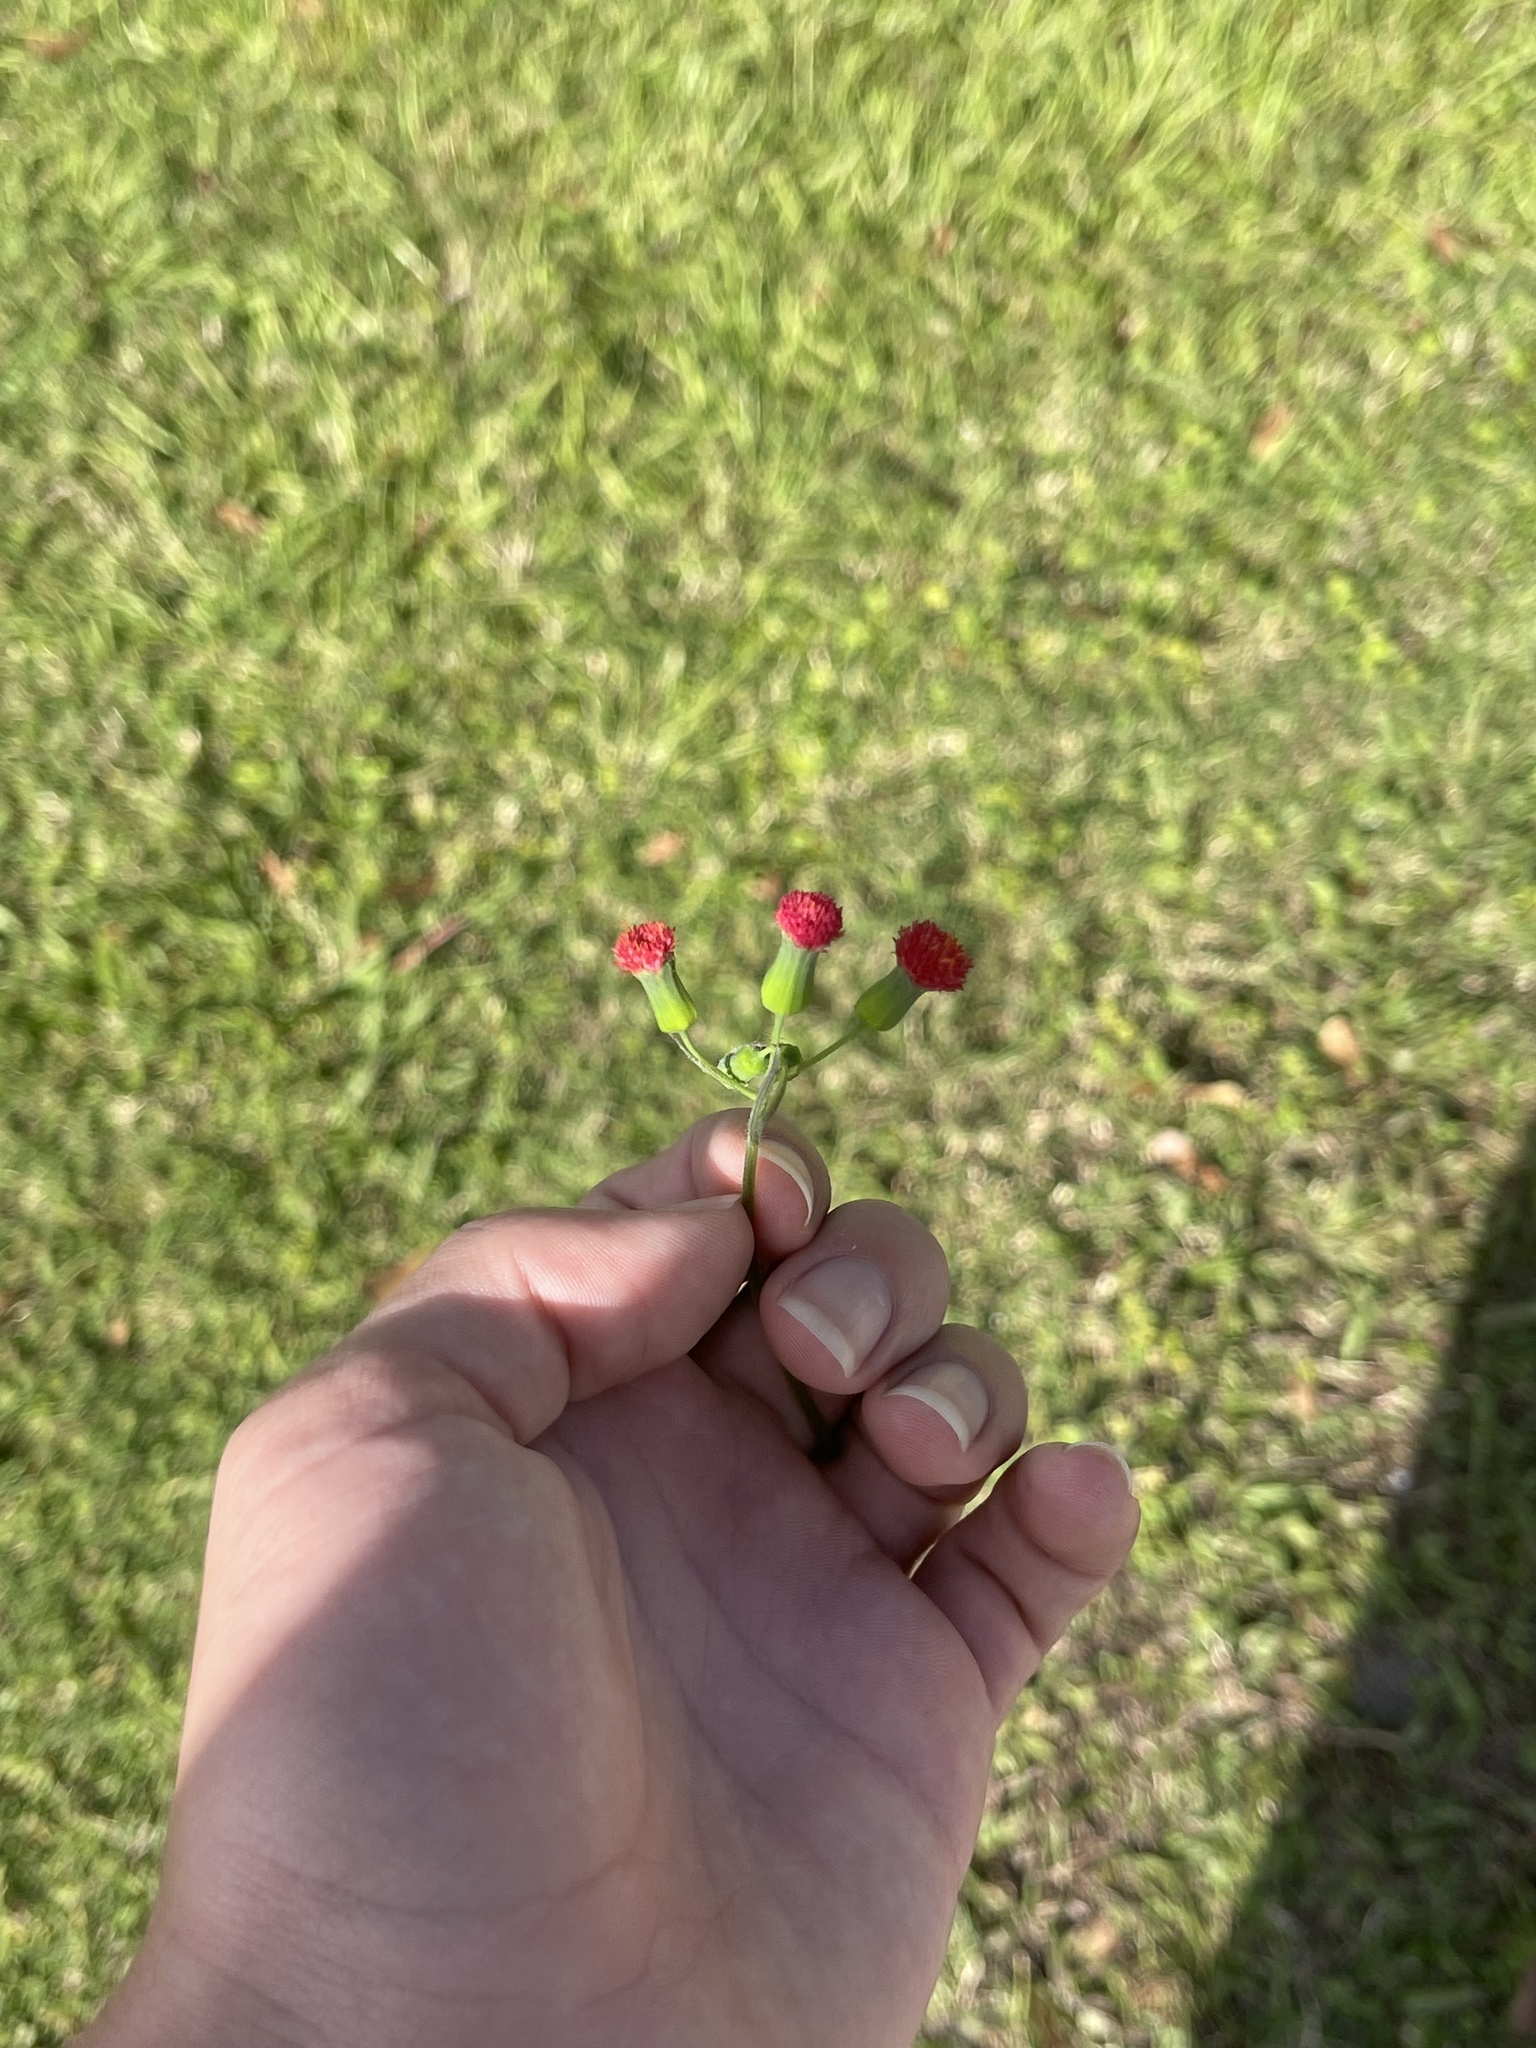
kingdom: Plantae
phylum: Tracheophyta
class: Magnoliopsida
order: Asterales
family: Asteraceae
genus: Emilia
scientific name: Emilia fosbergii
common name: Florida tasselflower
